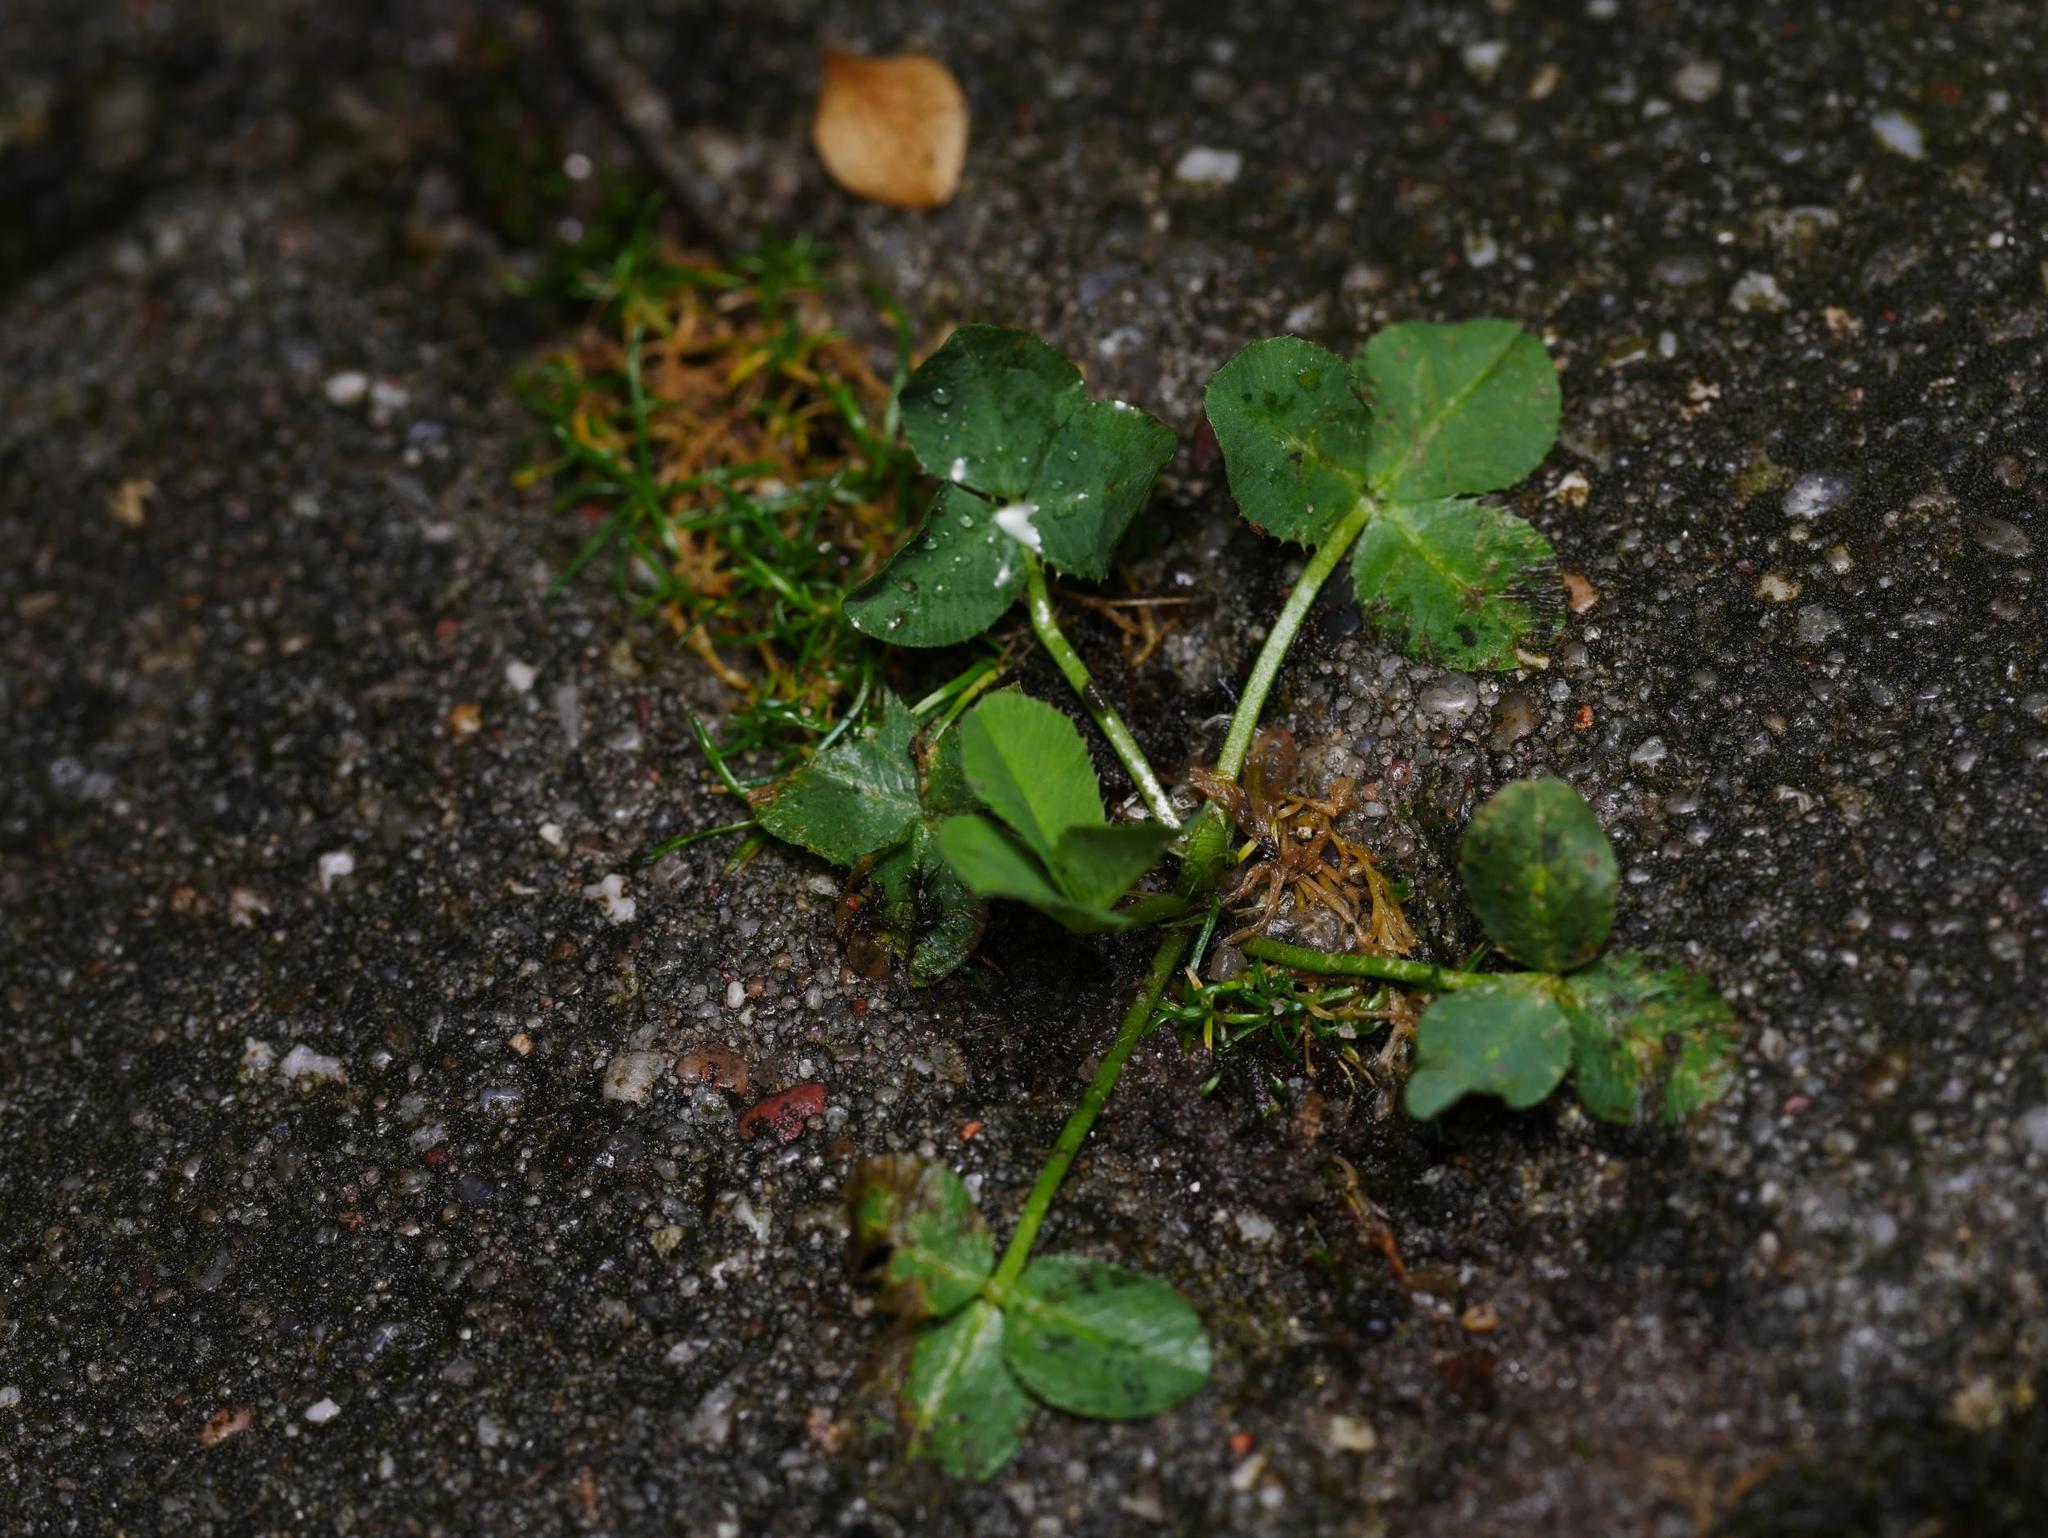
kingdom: Plantae
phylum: Tracheophyta
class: Magnoliopsida
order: Fabales
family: Fabaceae
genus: Trifolium
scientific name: Trifolium repens
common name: White clover
